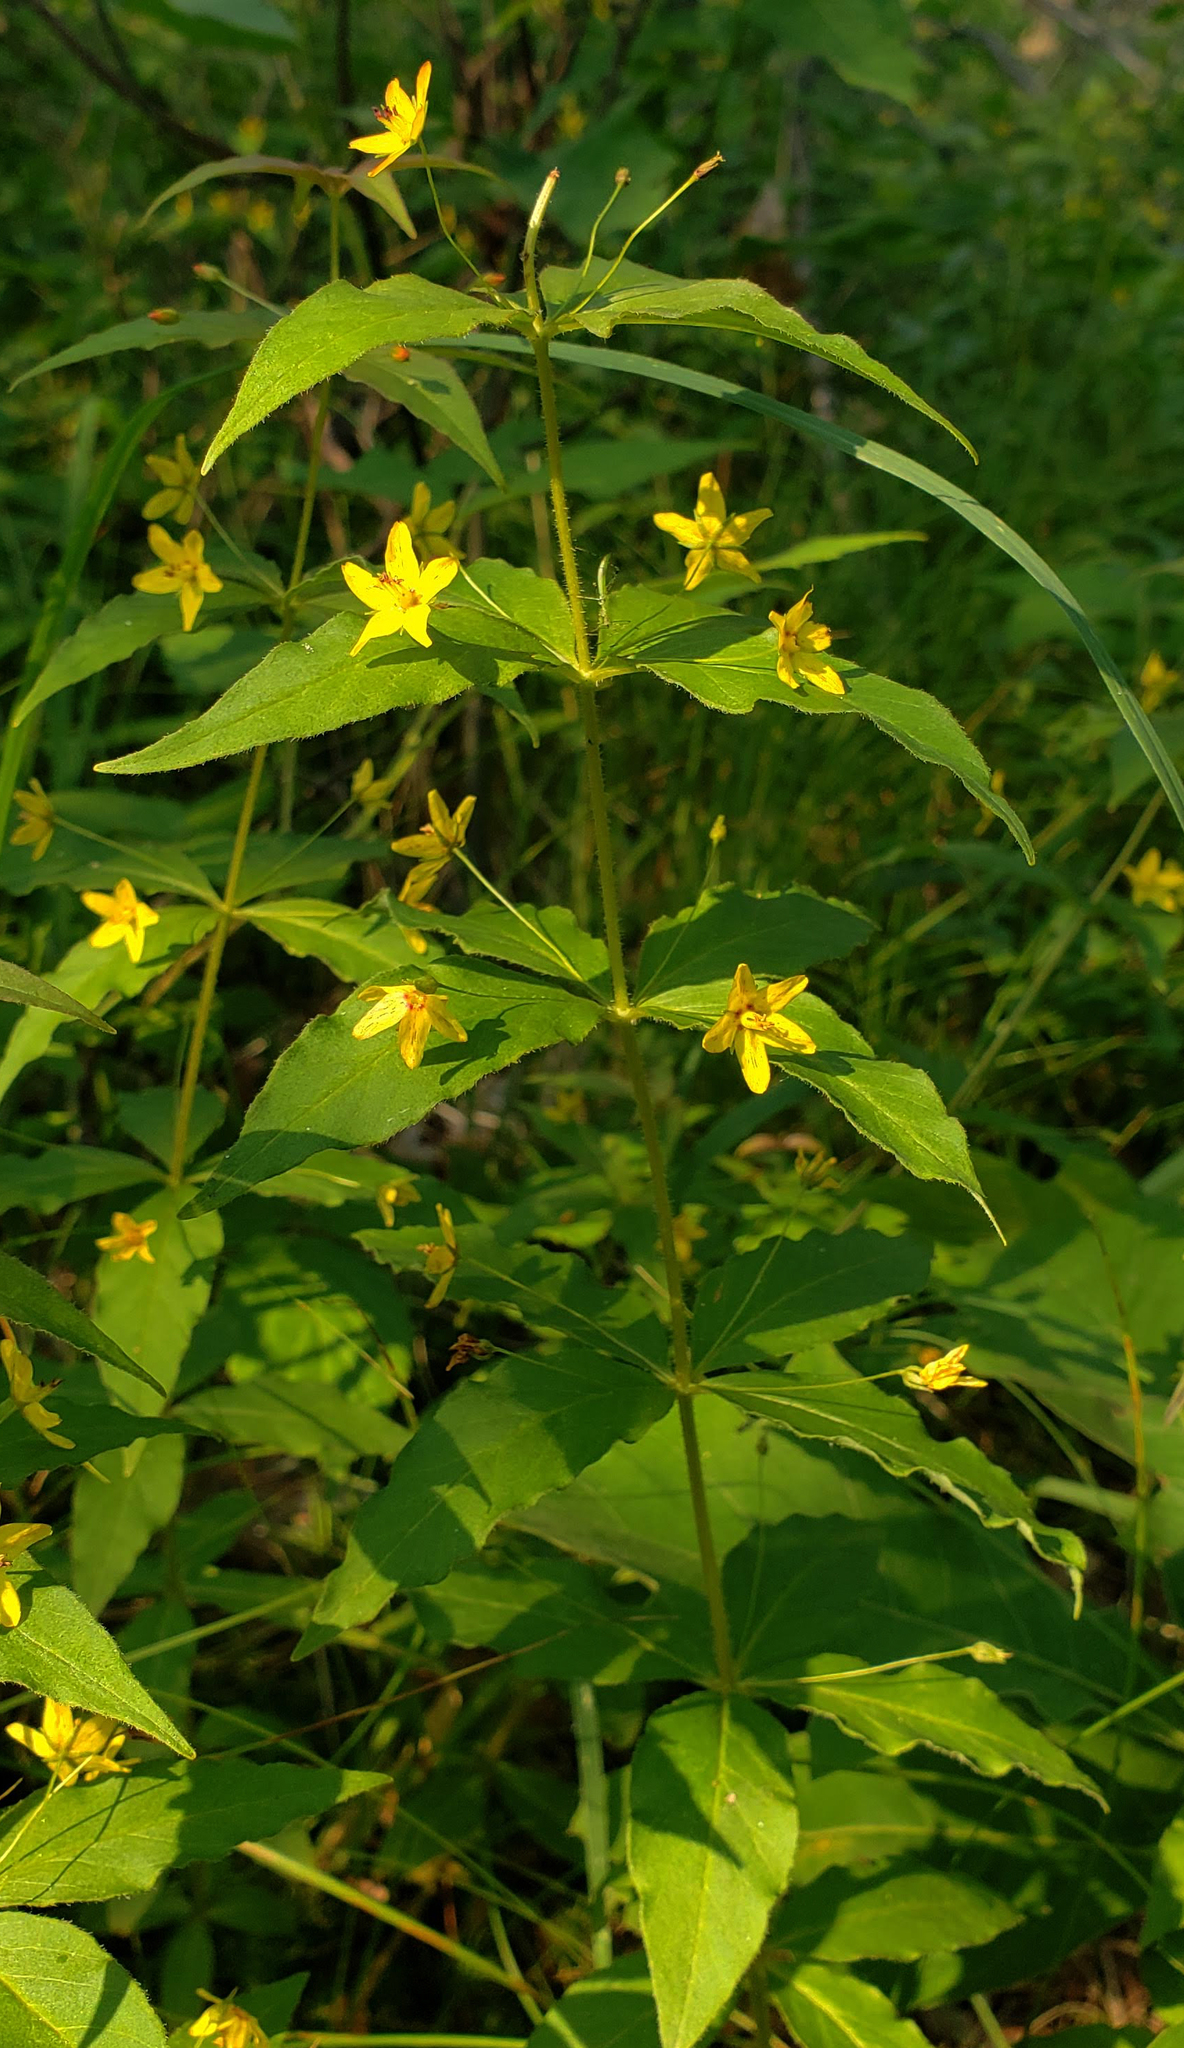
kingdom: Plantae
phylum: Tracheophyta
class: Magnoliopsida
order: Ericales
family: Primulaceae
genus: Lysimachia
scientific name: Lysimachia quadrifolia
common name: Whorled loosestrife
